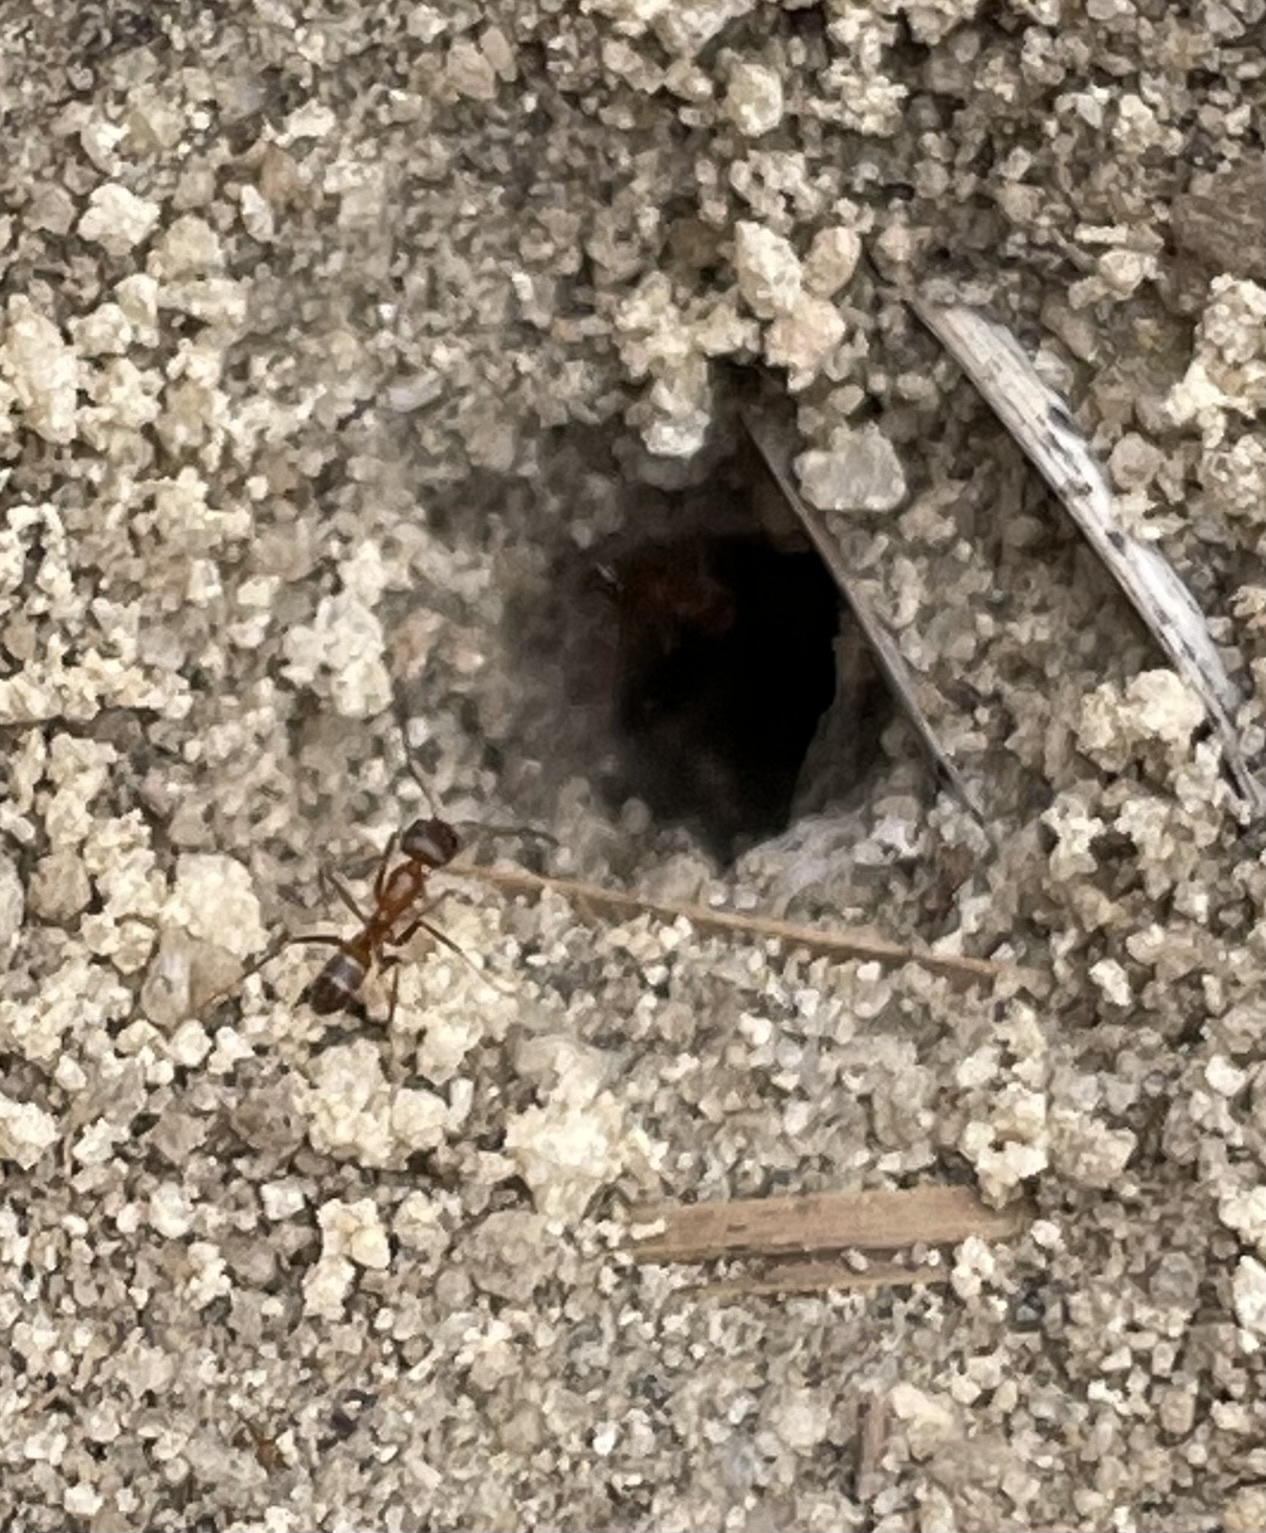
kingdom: Animalia
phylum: Arthropoda
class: Insecta
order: Hymenoptera
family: Formicidae
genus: Dorymyrmex
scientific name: Dorymyrmex bureni
